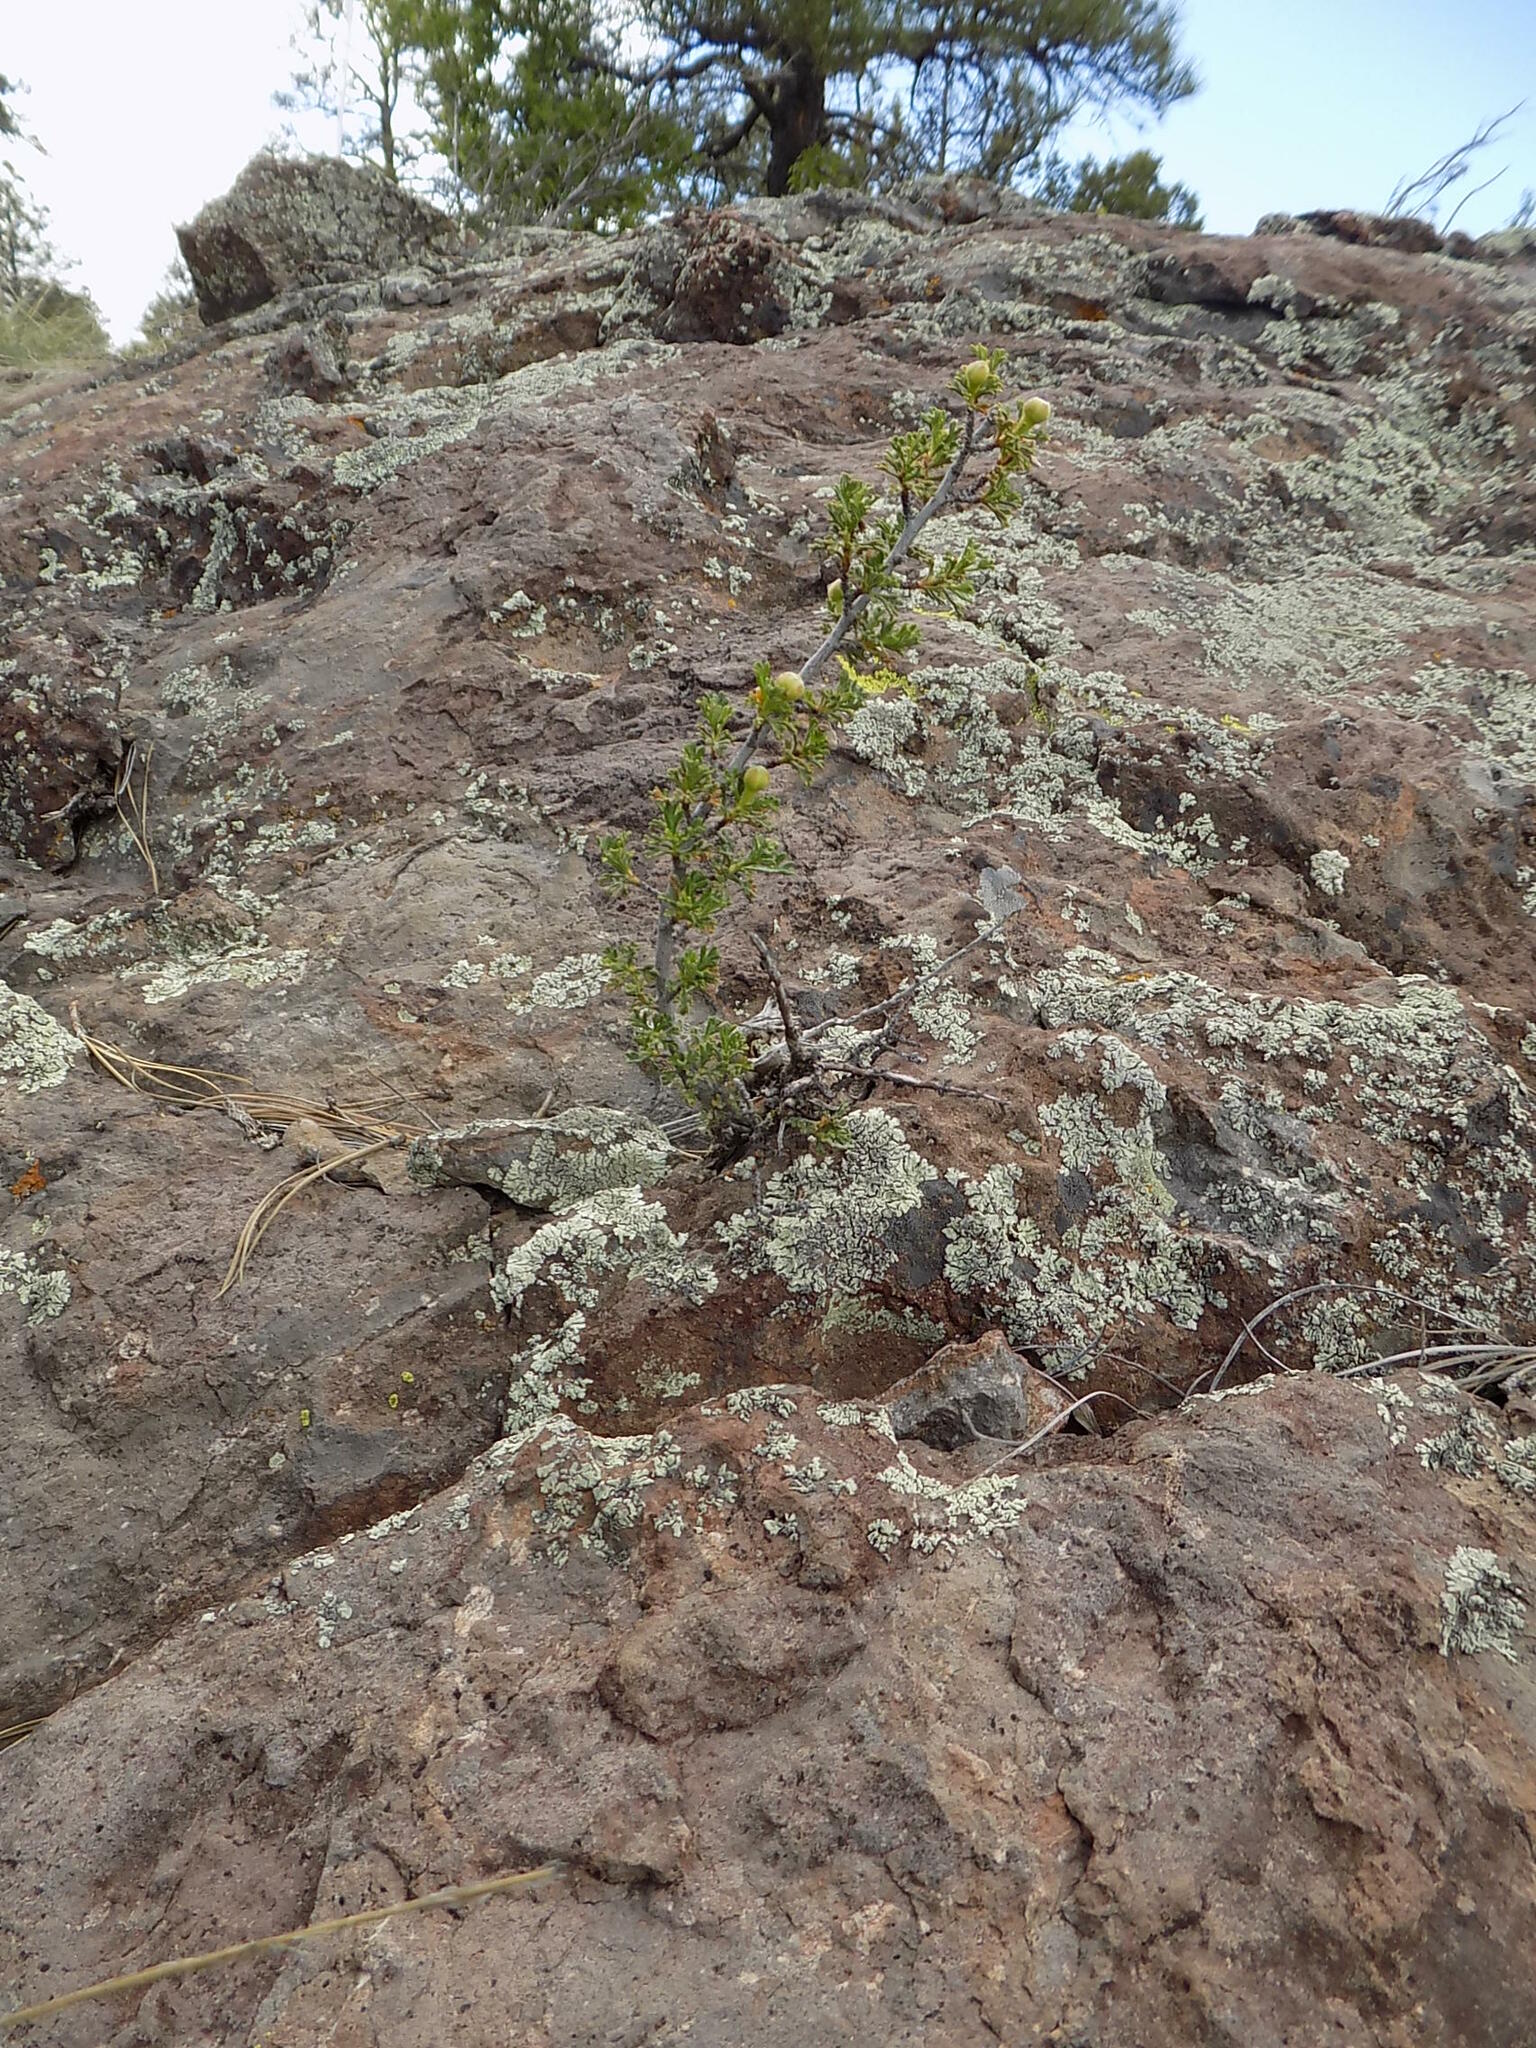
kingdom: Plantae
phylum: Tracheophyta
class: Magnoliopsida
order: Rosales
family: Rosaceae
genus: Purshia
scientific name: Purshia stansburiana
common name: Stansbury's cliffrose
